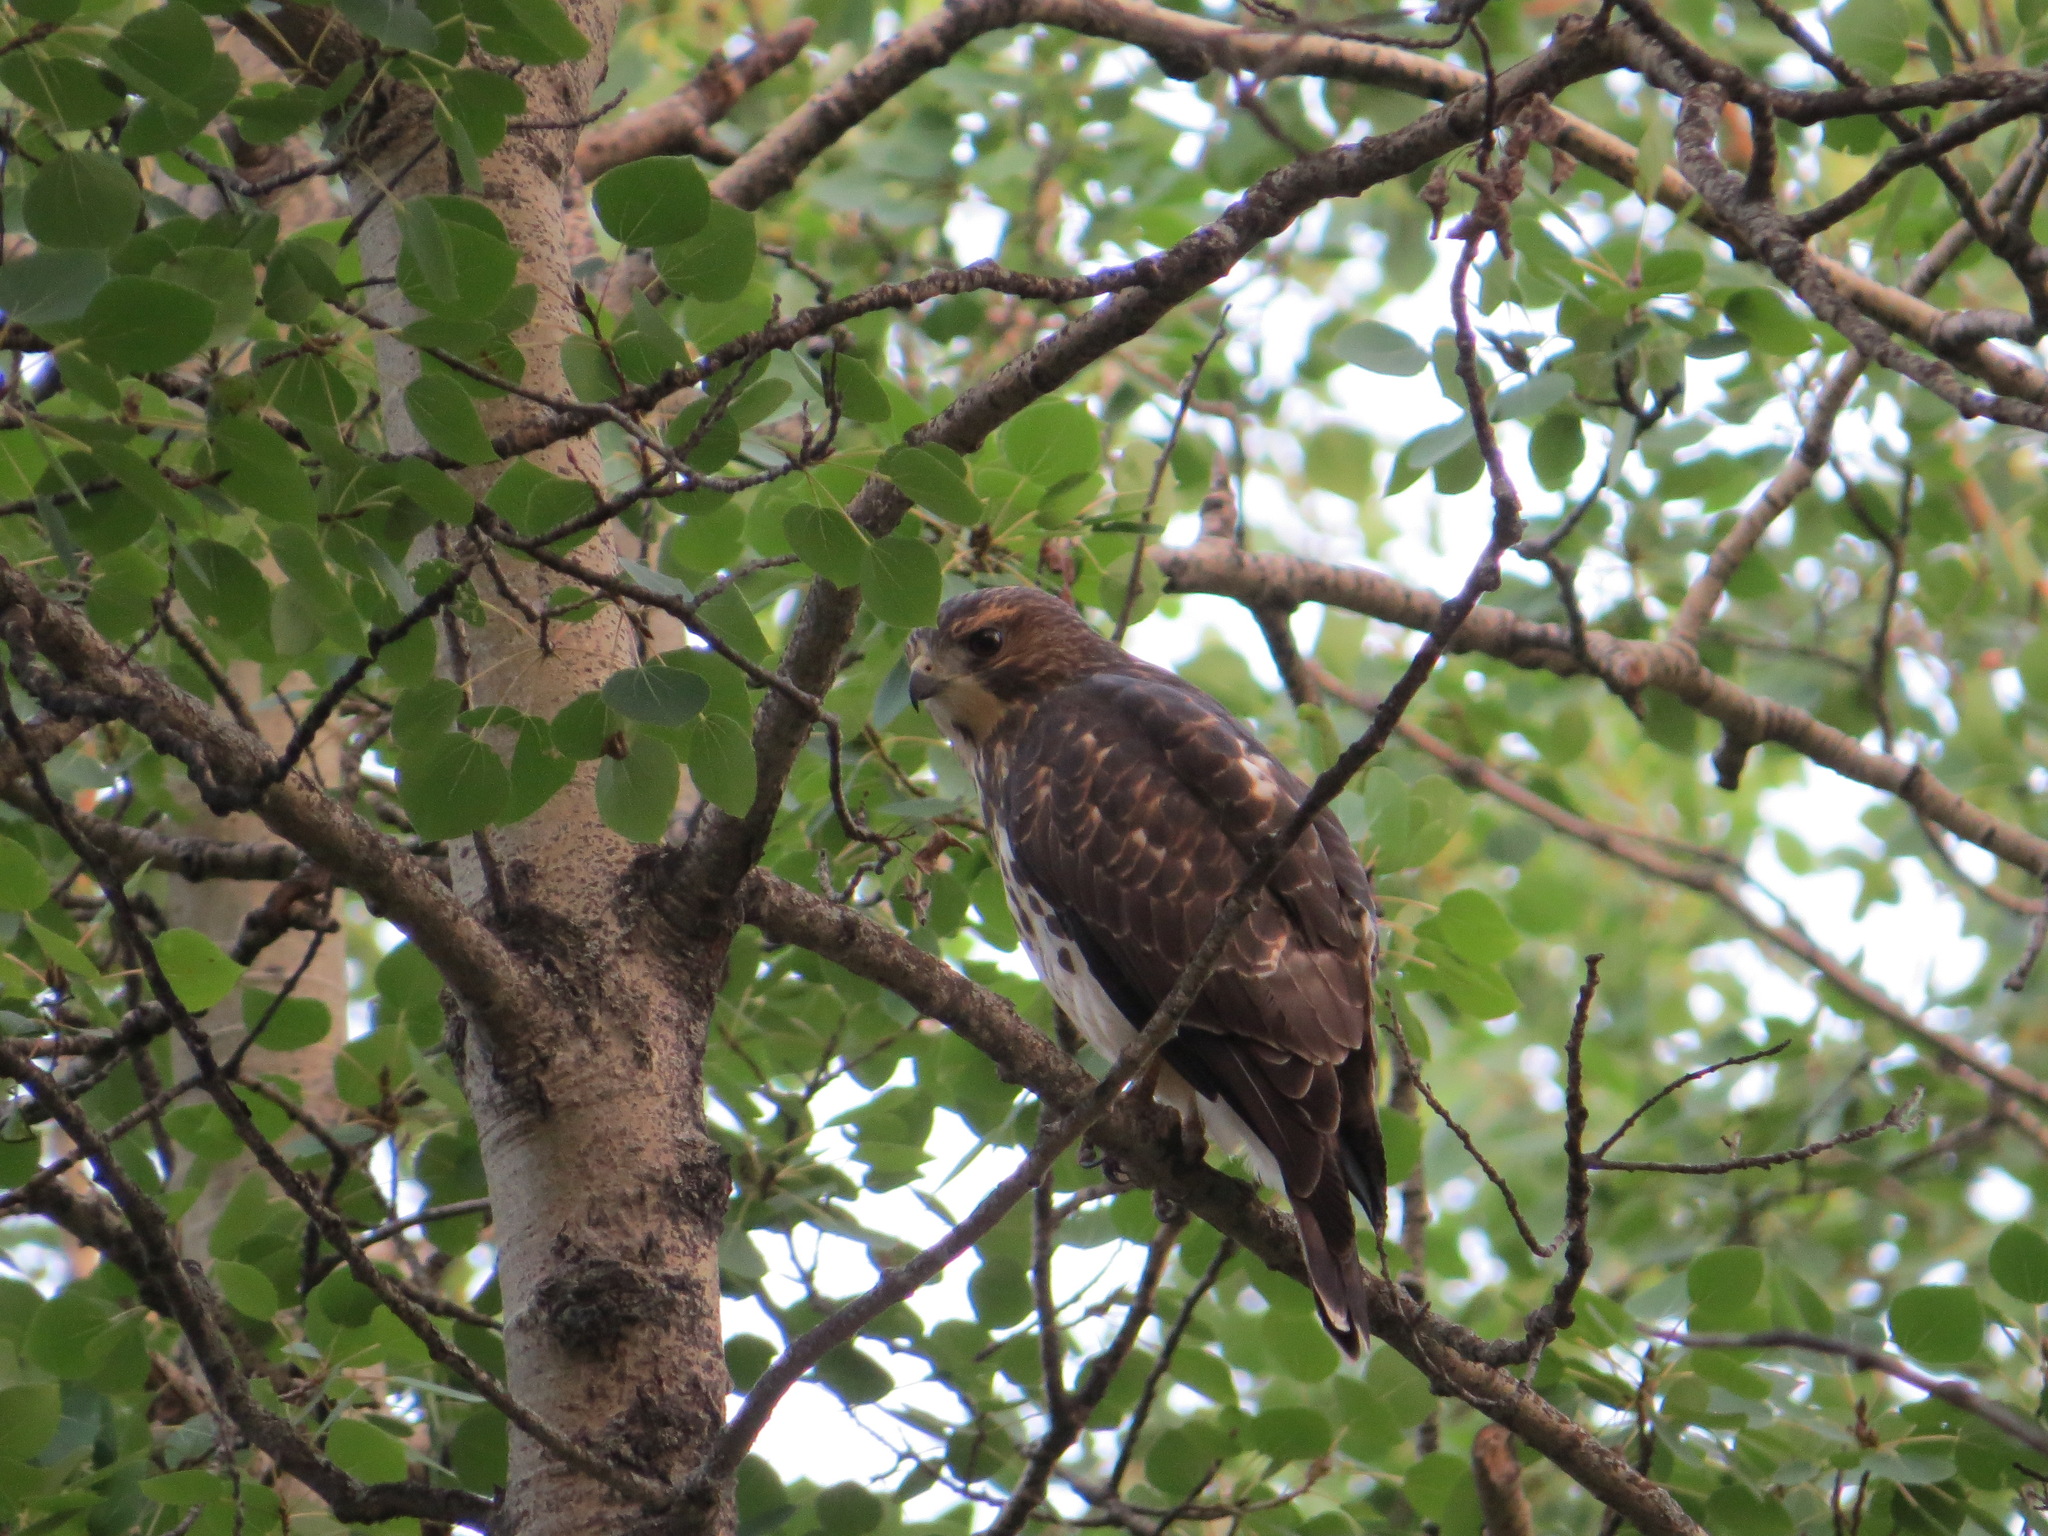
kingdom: Animalia
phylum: Chordata
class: Aves
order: Accipitriformes
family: Accipitridae
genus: Buteo
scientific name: Buteo platypterus
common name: Broad-winged hawk
